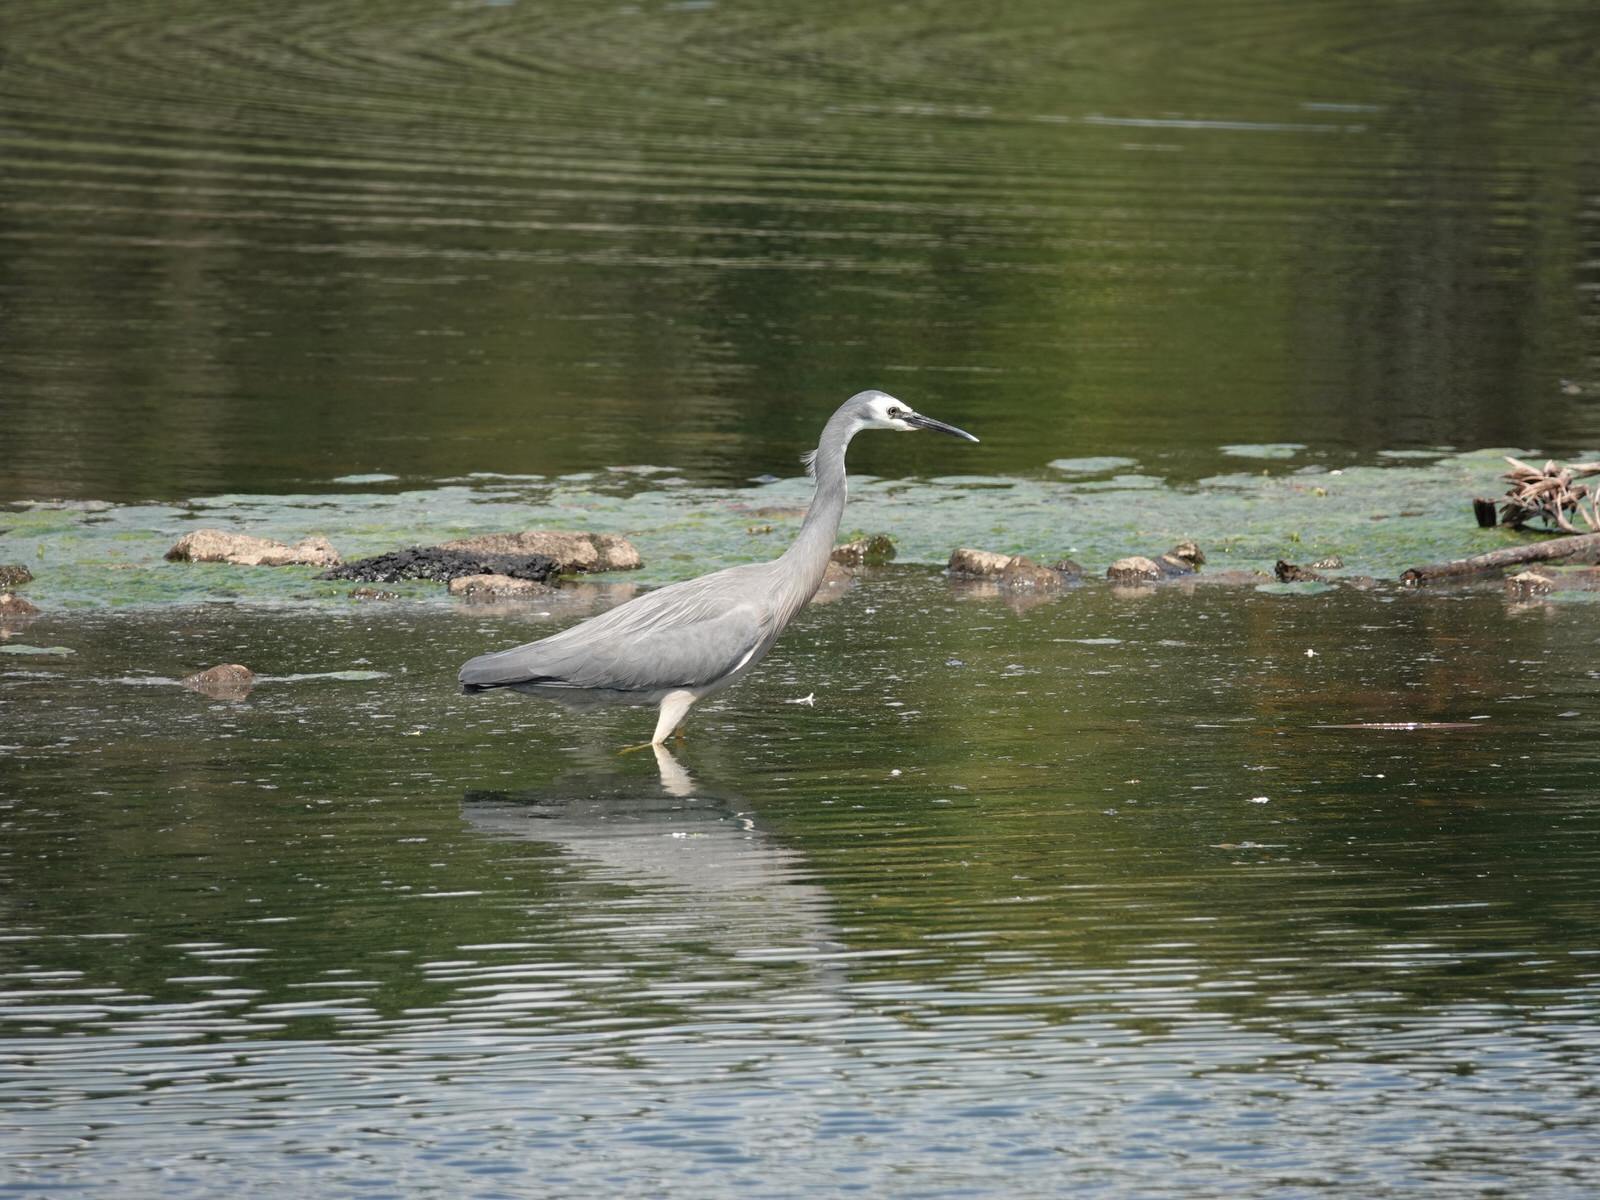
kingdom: Animalia
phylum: Chordata
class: Aves
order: Pelecaniformes
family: Ardeidae
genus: Egretta
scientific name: Egretta novaehollandiae
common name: White-faced heron
